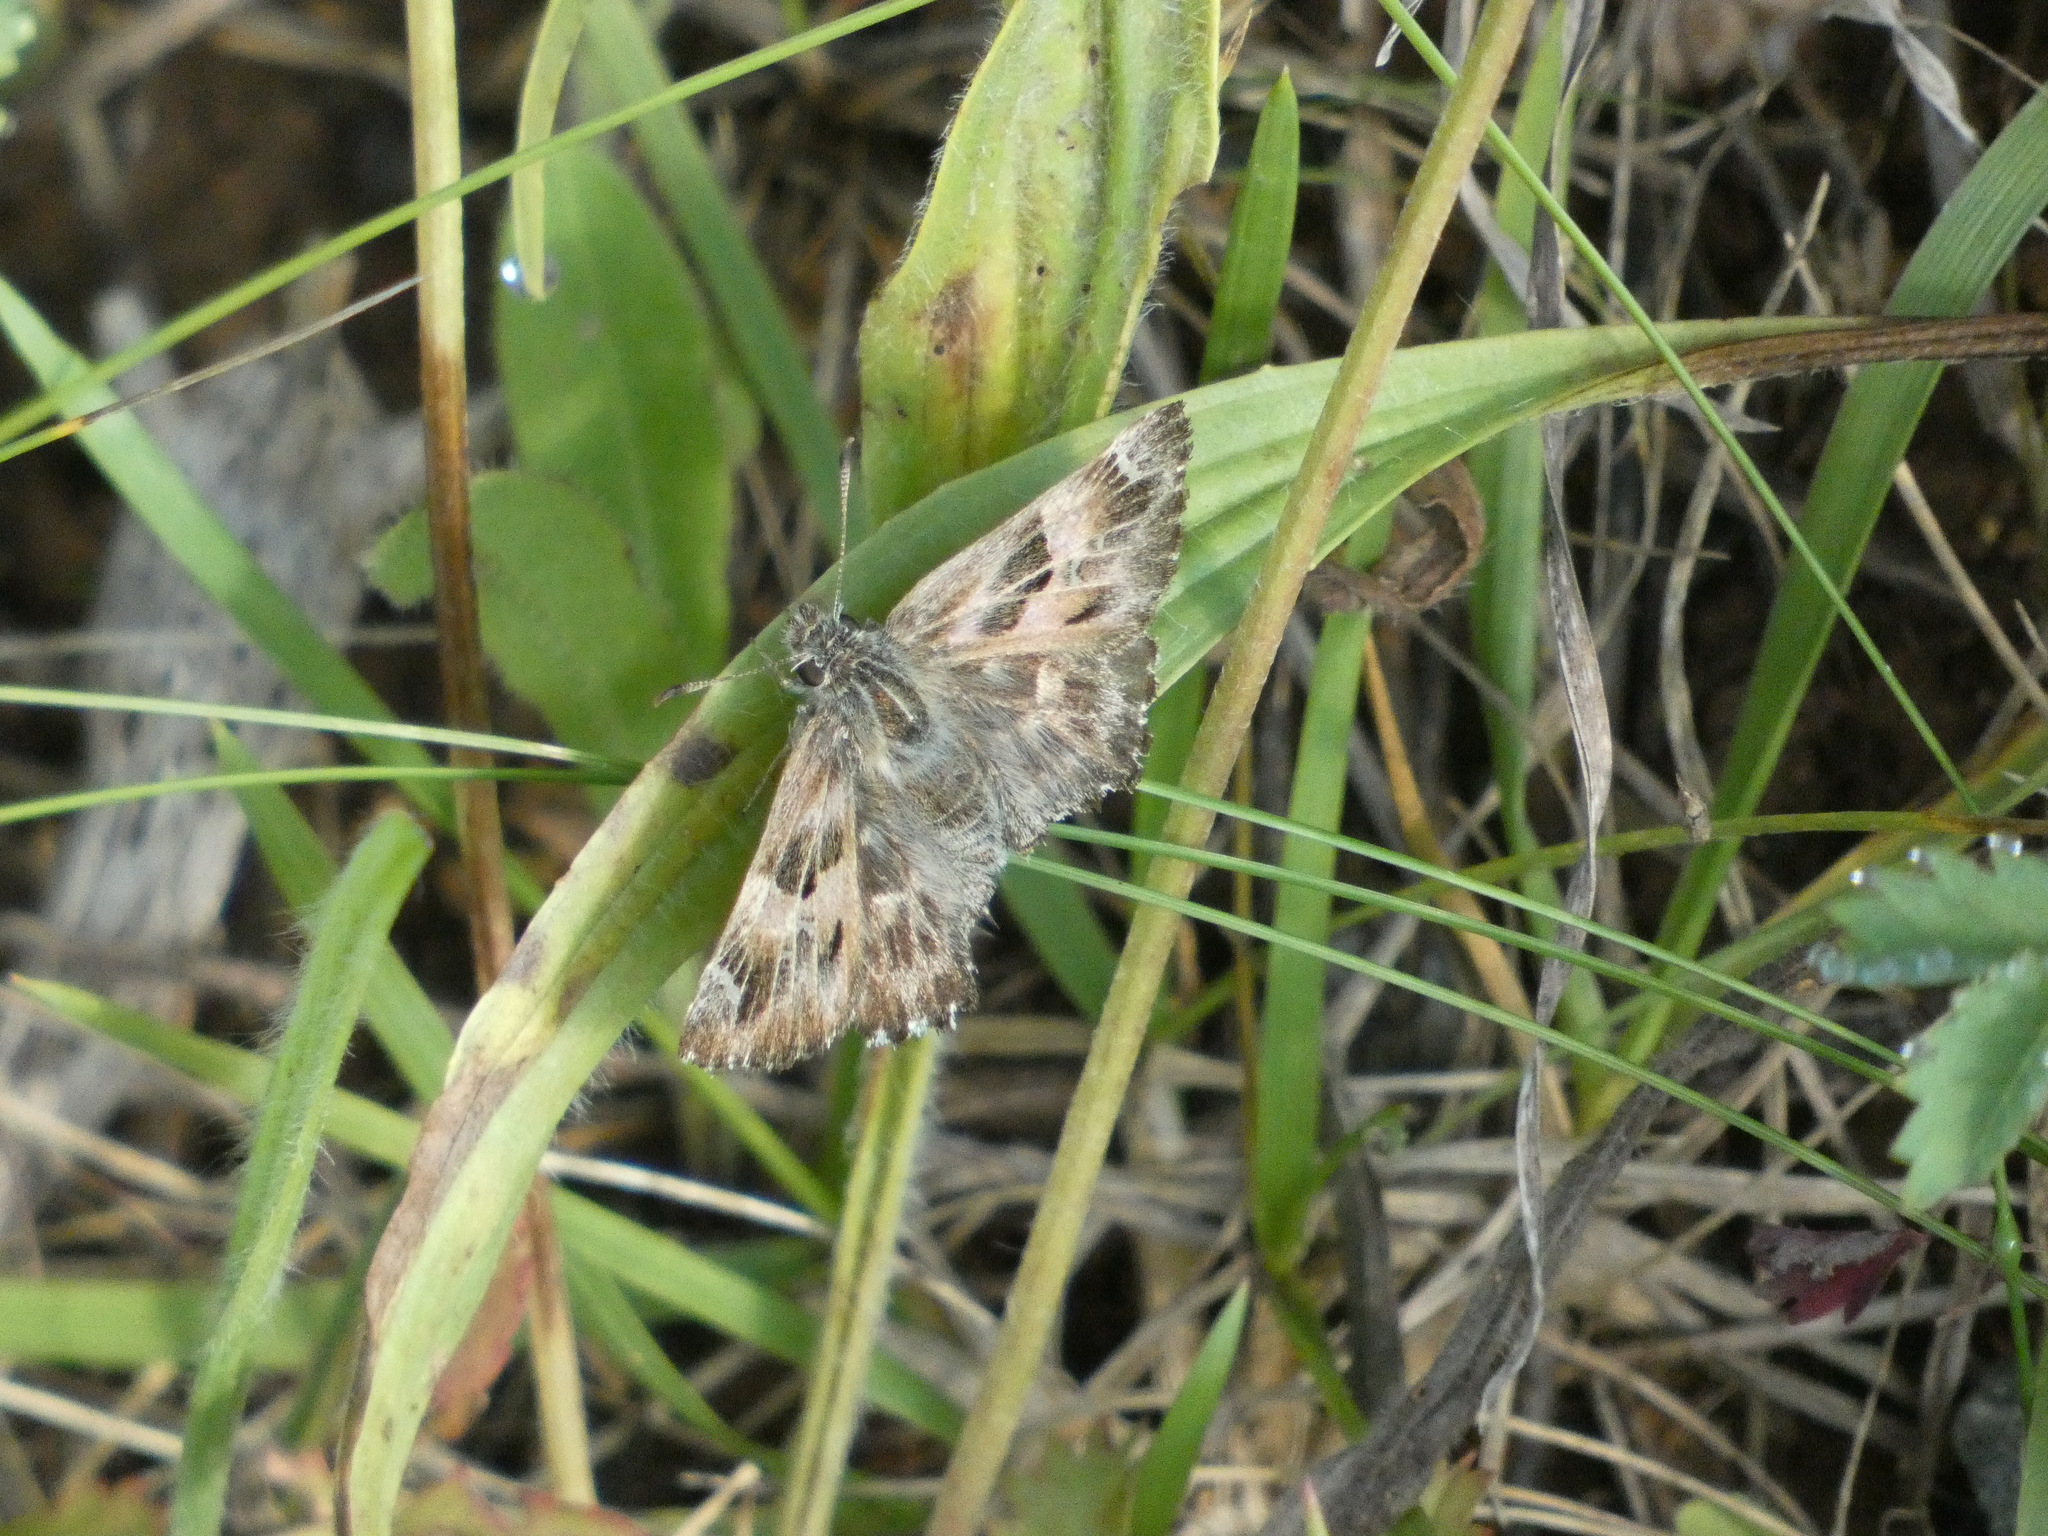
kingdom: Animalia
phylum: Arthropoda
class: Insecta
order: Lepidoptera
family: Hesperiidae
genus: Carcharodus
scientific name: Carcharodus alceae
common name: Mallow skipper
